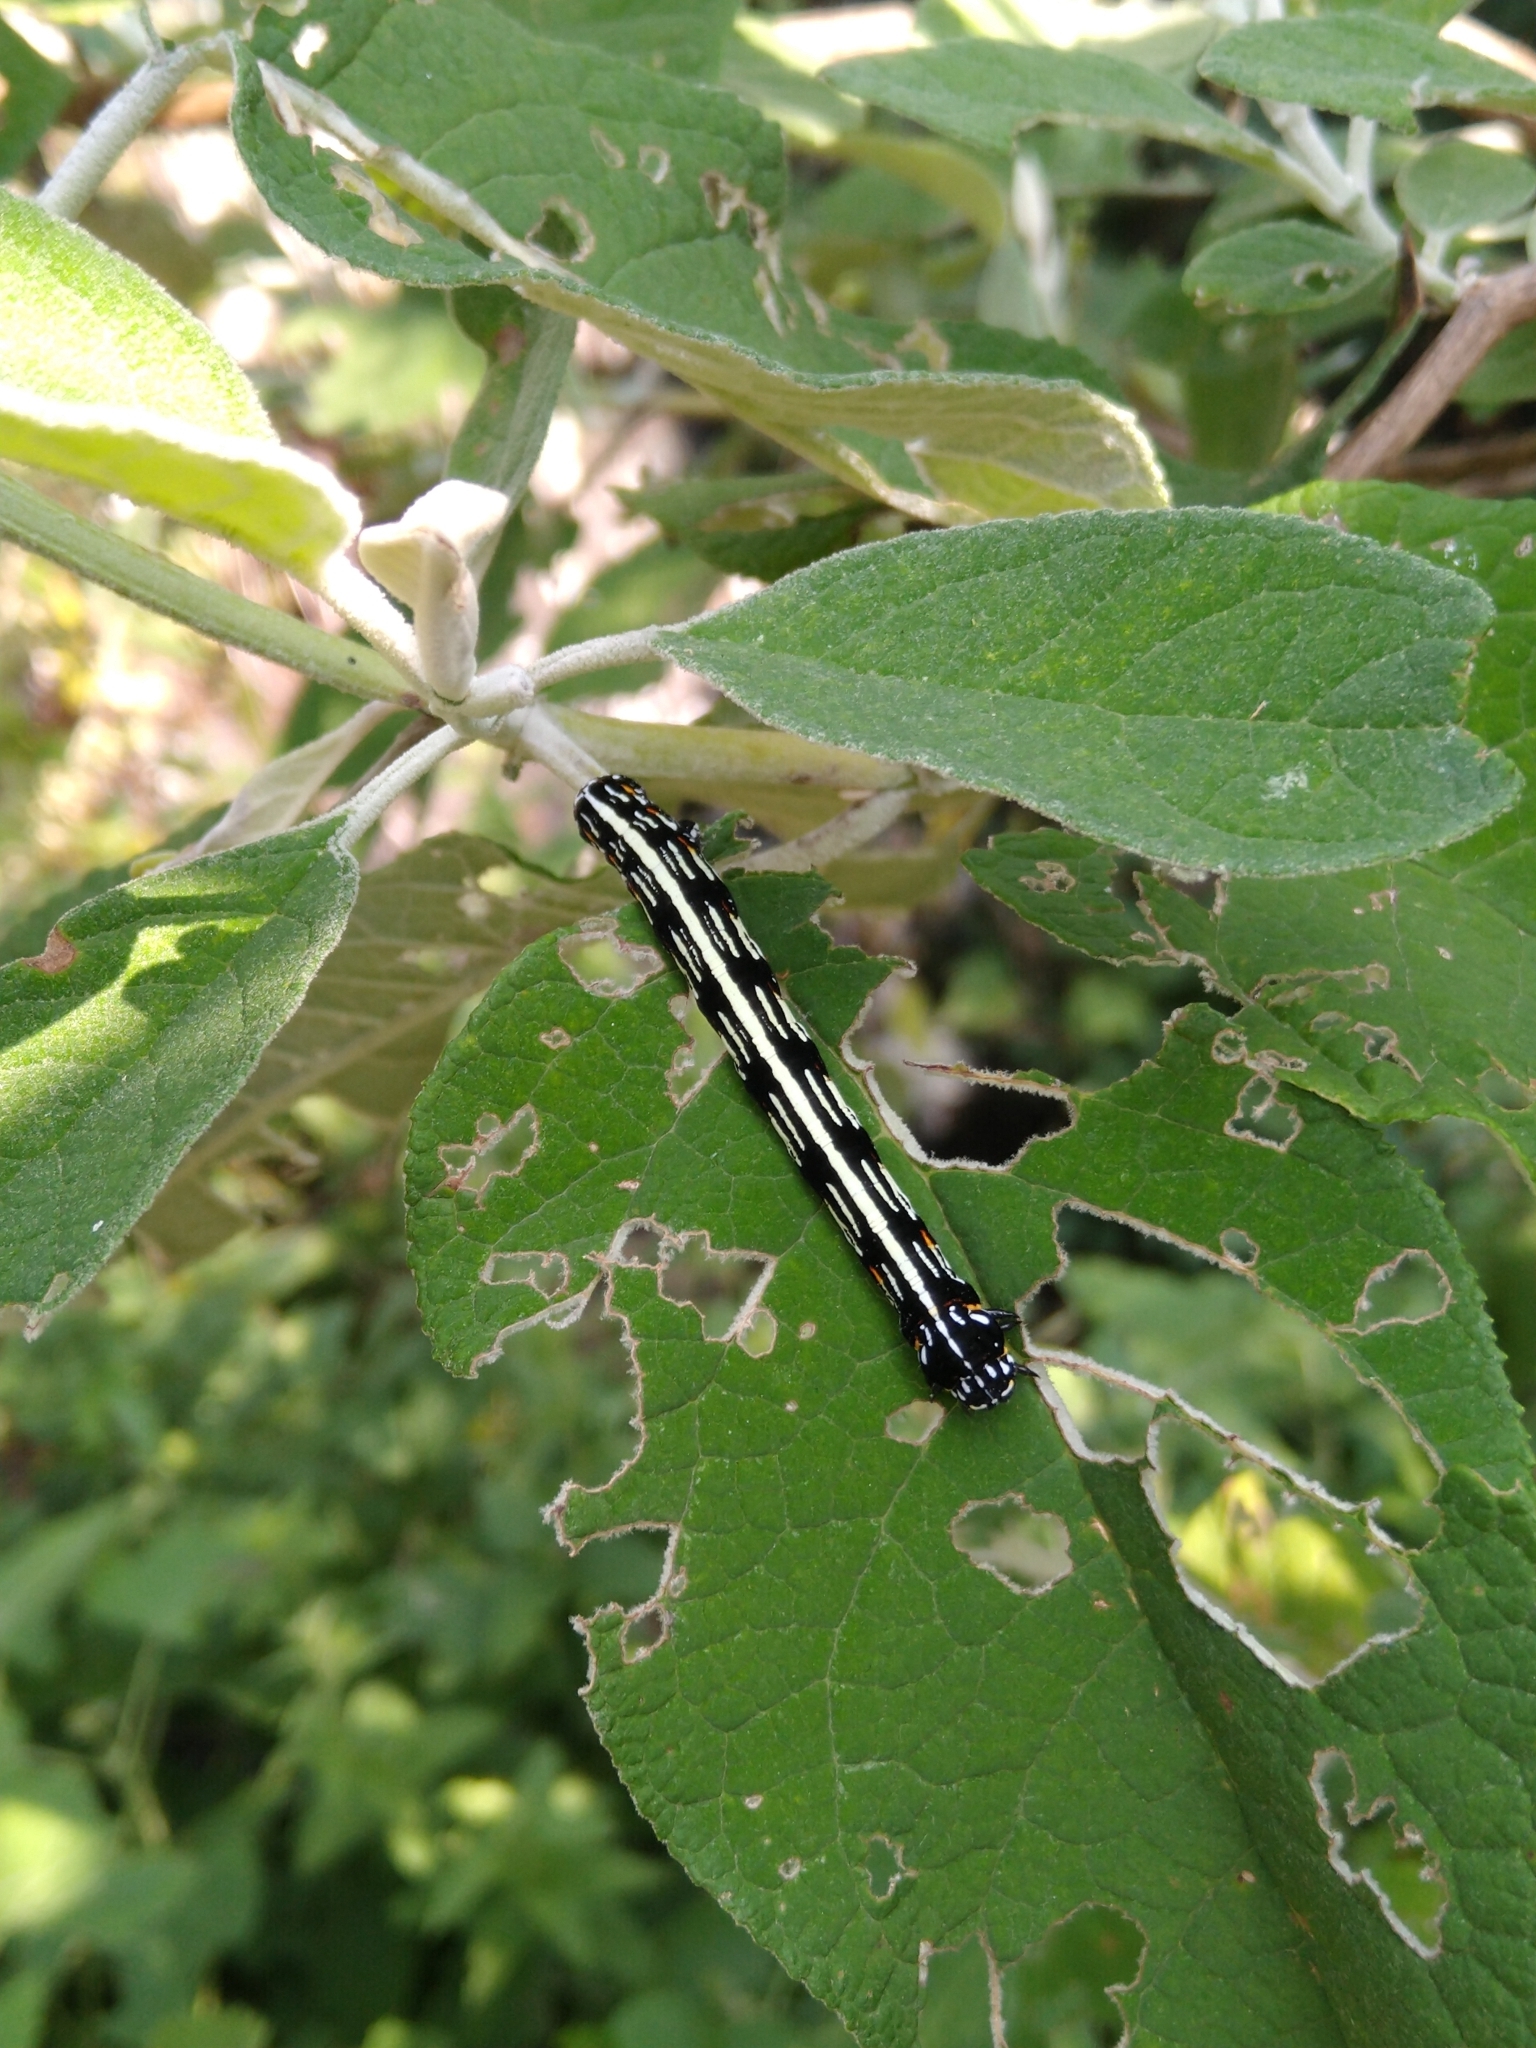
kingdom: Animalia
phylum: Arthropoda
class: Insecta
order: Lepidoptera
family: Geometridae
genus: Acronyctodes
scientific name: Acronyctodes mexicanaria
